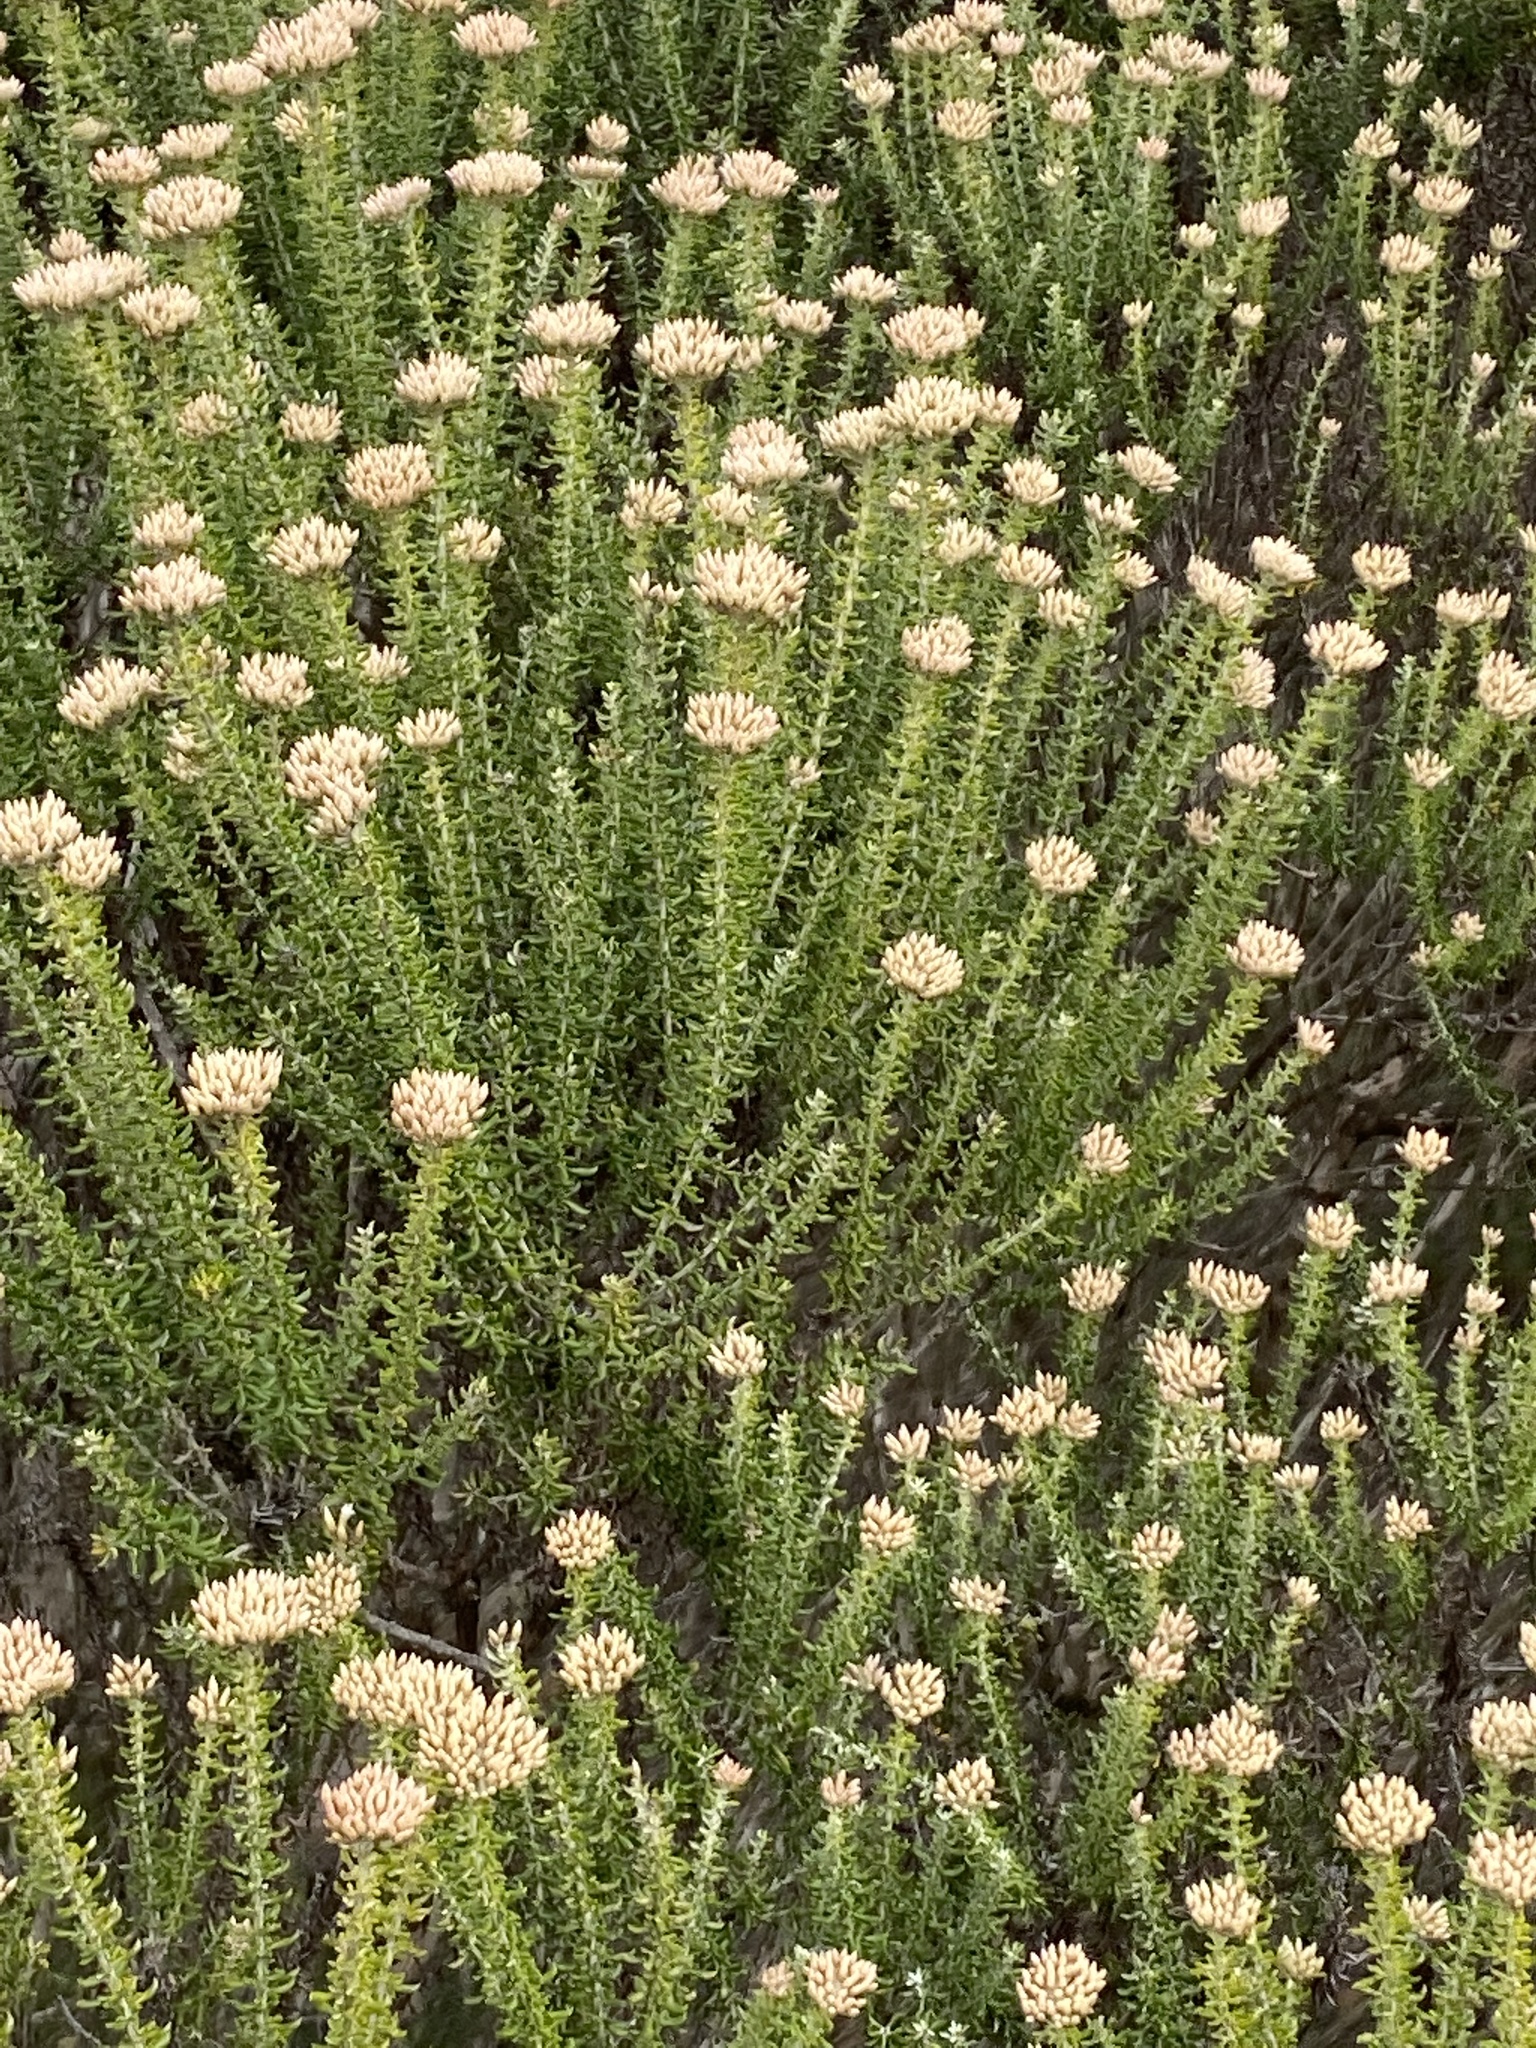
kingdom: Plantae
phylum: Tracheophyta
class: Magnoliopsida
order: Asterales
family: Asteraceae
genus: Metalasia
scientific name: Metalasia muricata
